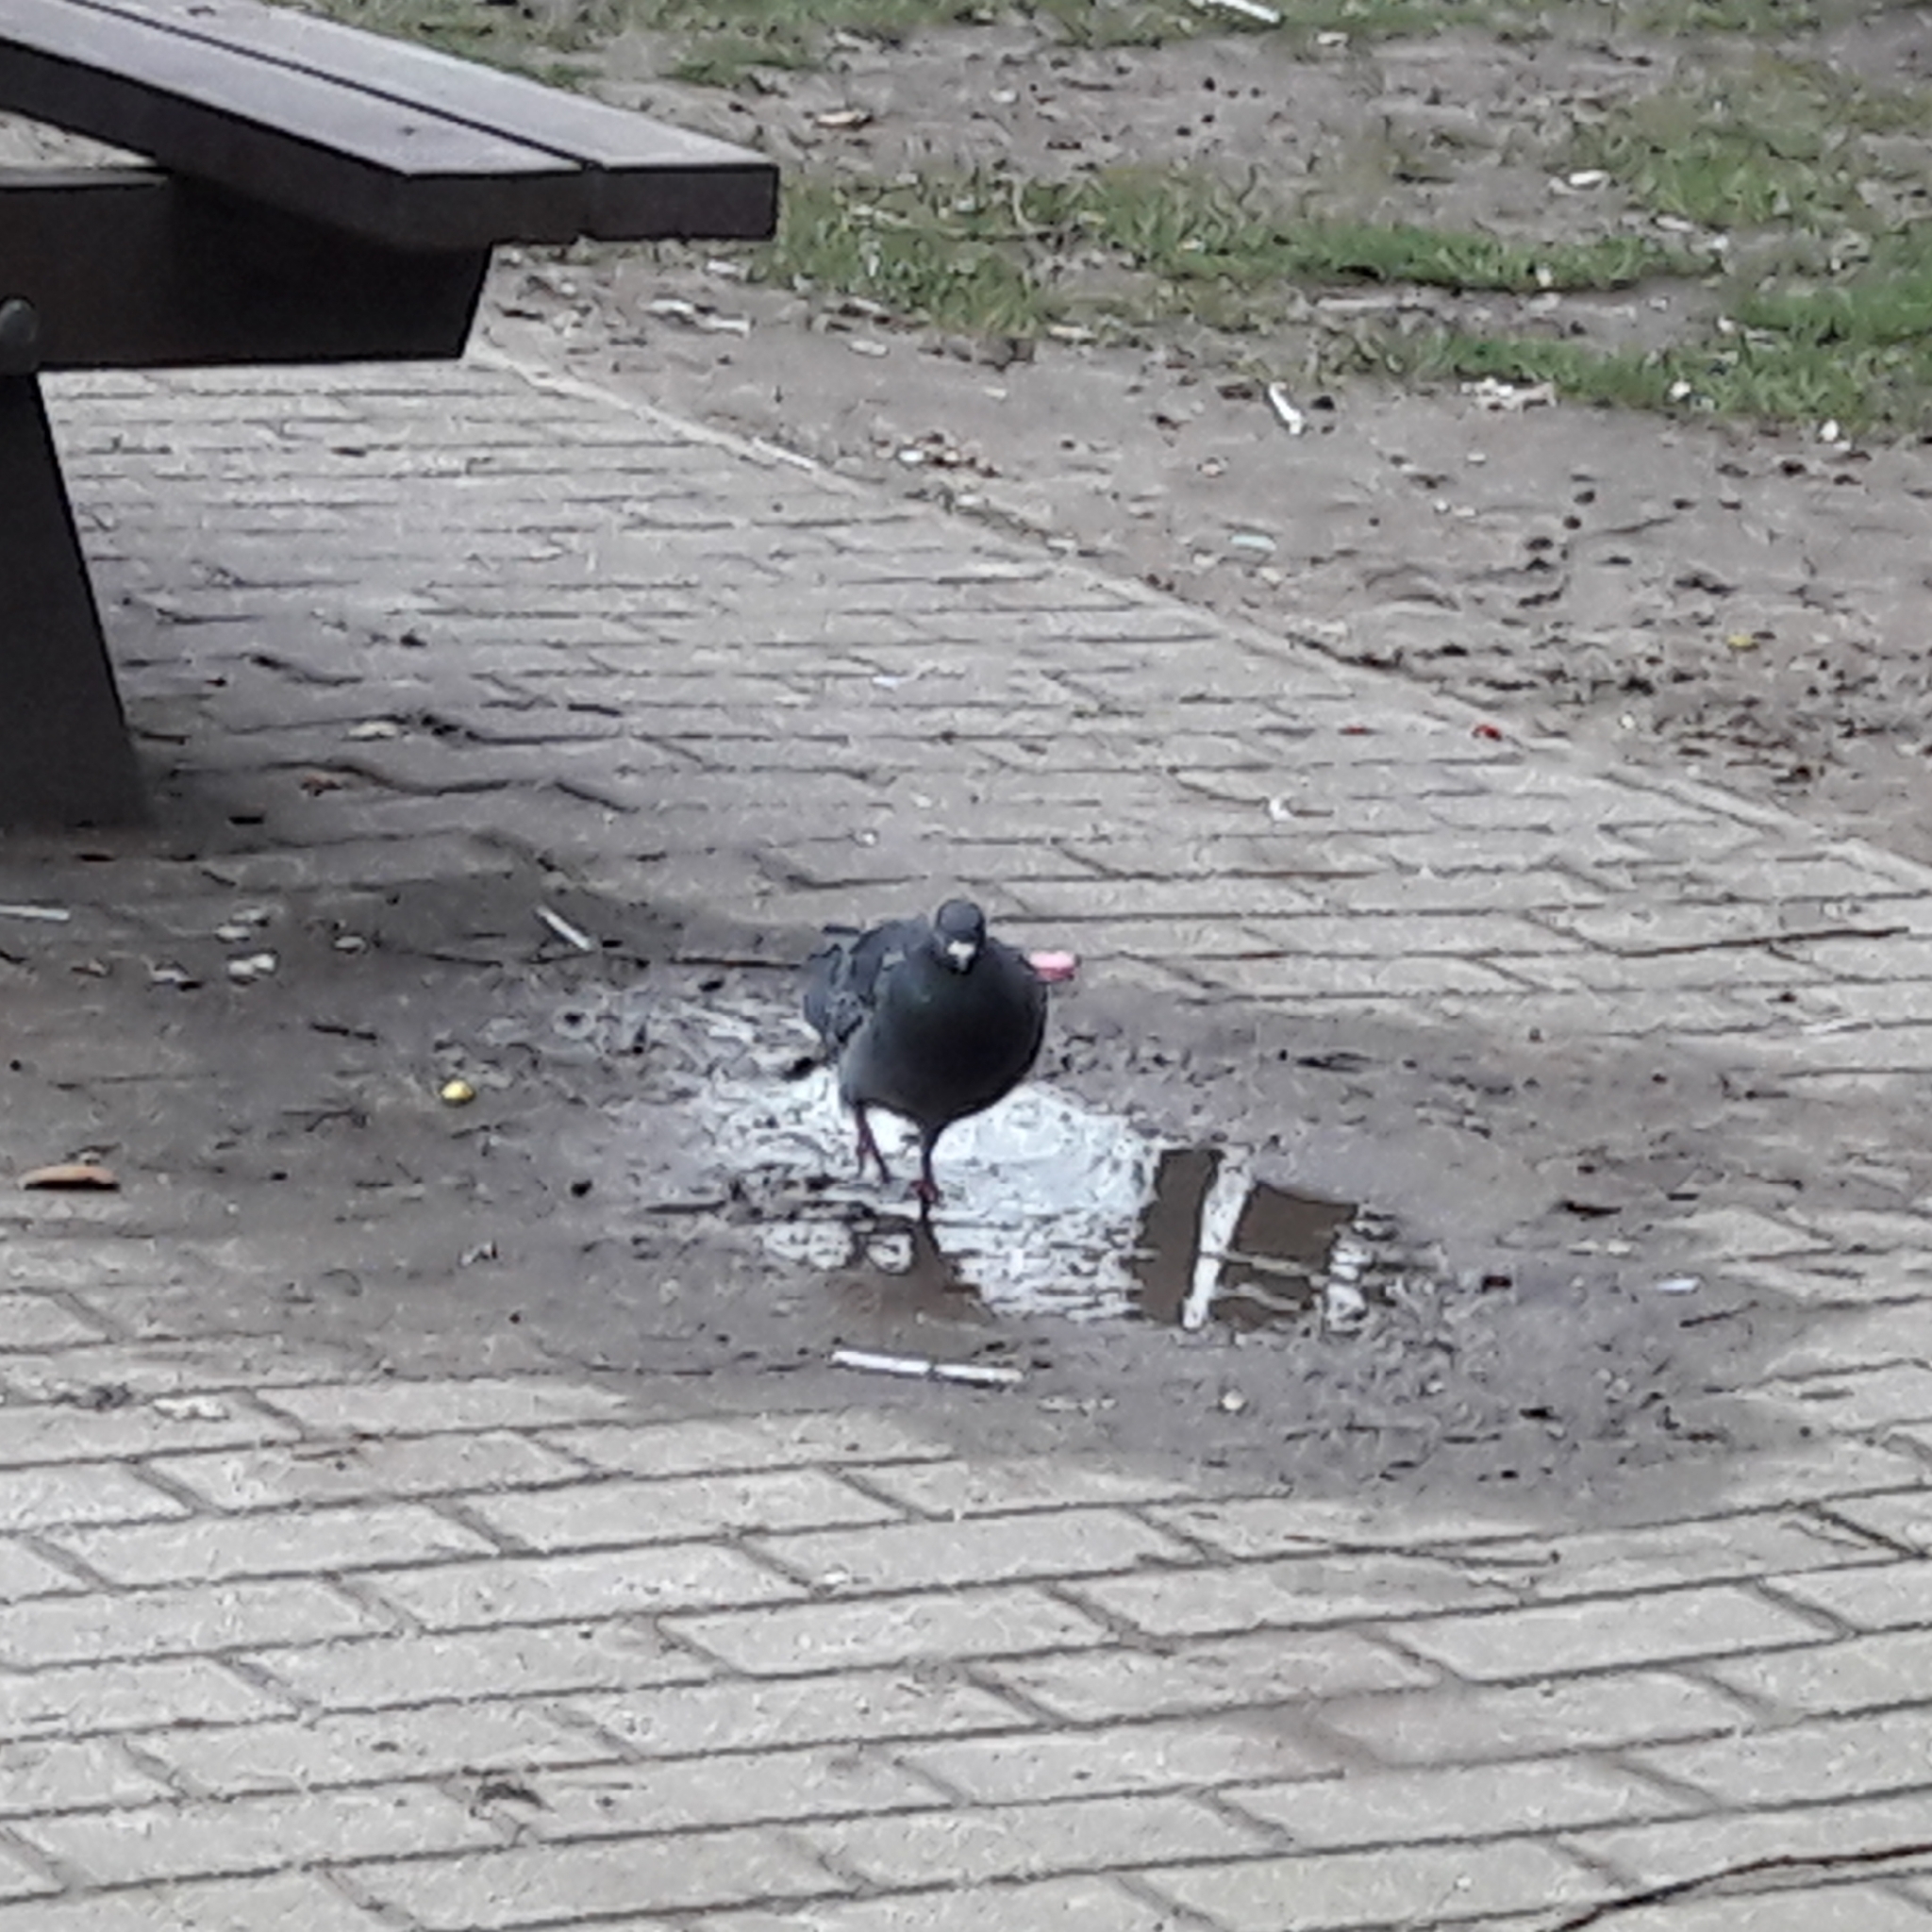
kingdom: Animalia
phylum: Chordata
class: Aves
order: Columbiformes
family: Columbidae
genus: Columba
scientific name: Columba livia
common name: Rock pigeon
